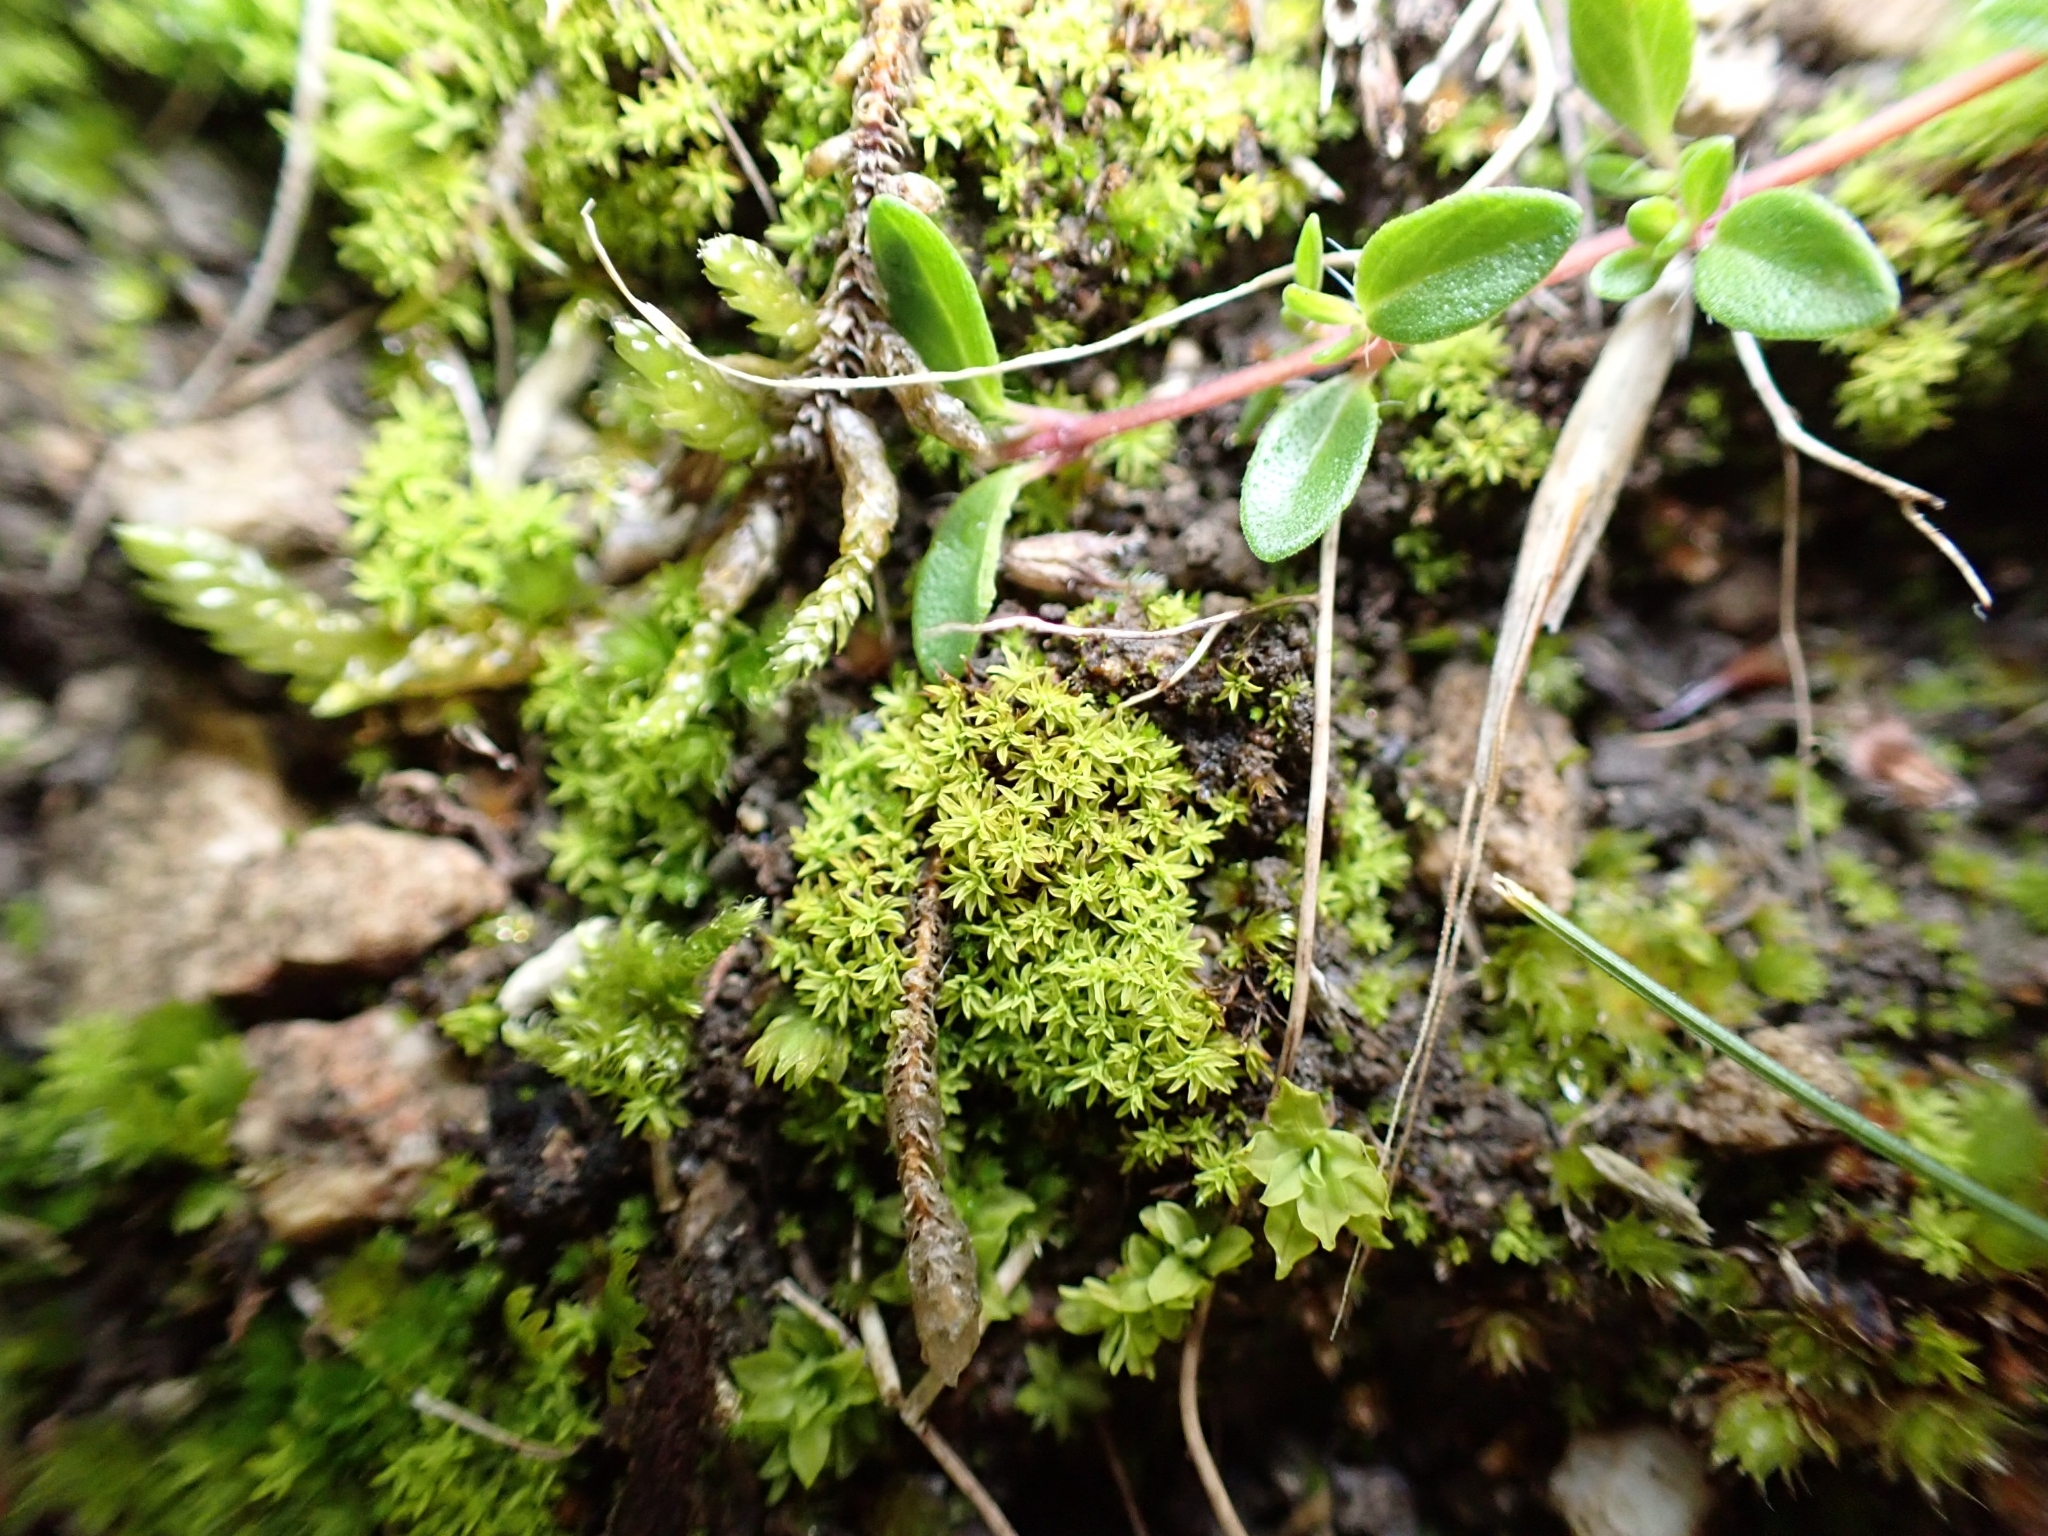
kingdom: Plantae
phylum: Bryophyta
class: Bryopsida
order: Pottiales
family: Pottiaceae
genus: Streblotrichum
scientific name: Streblotrichum convolutum
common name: Lesser bird's-claw beard-moss
